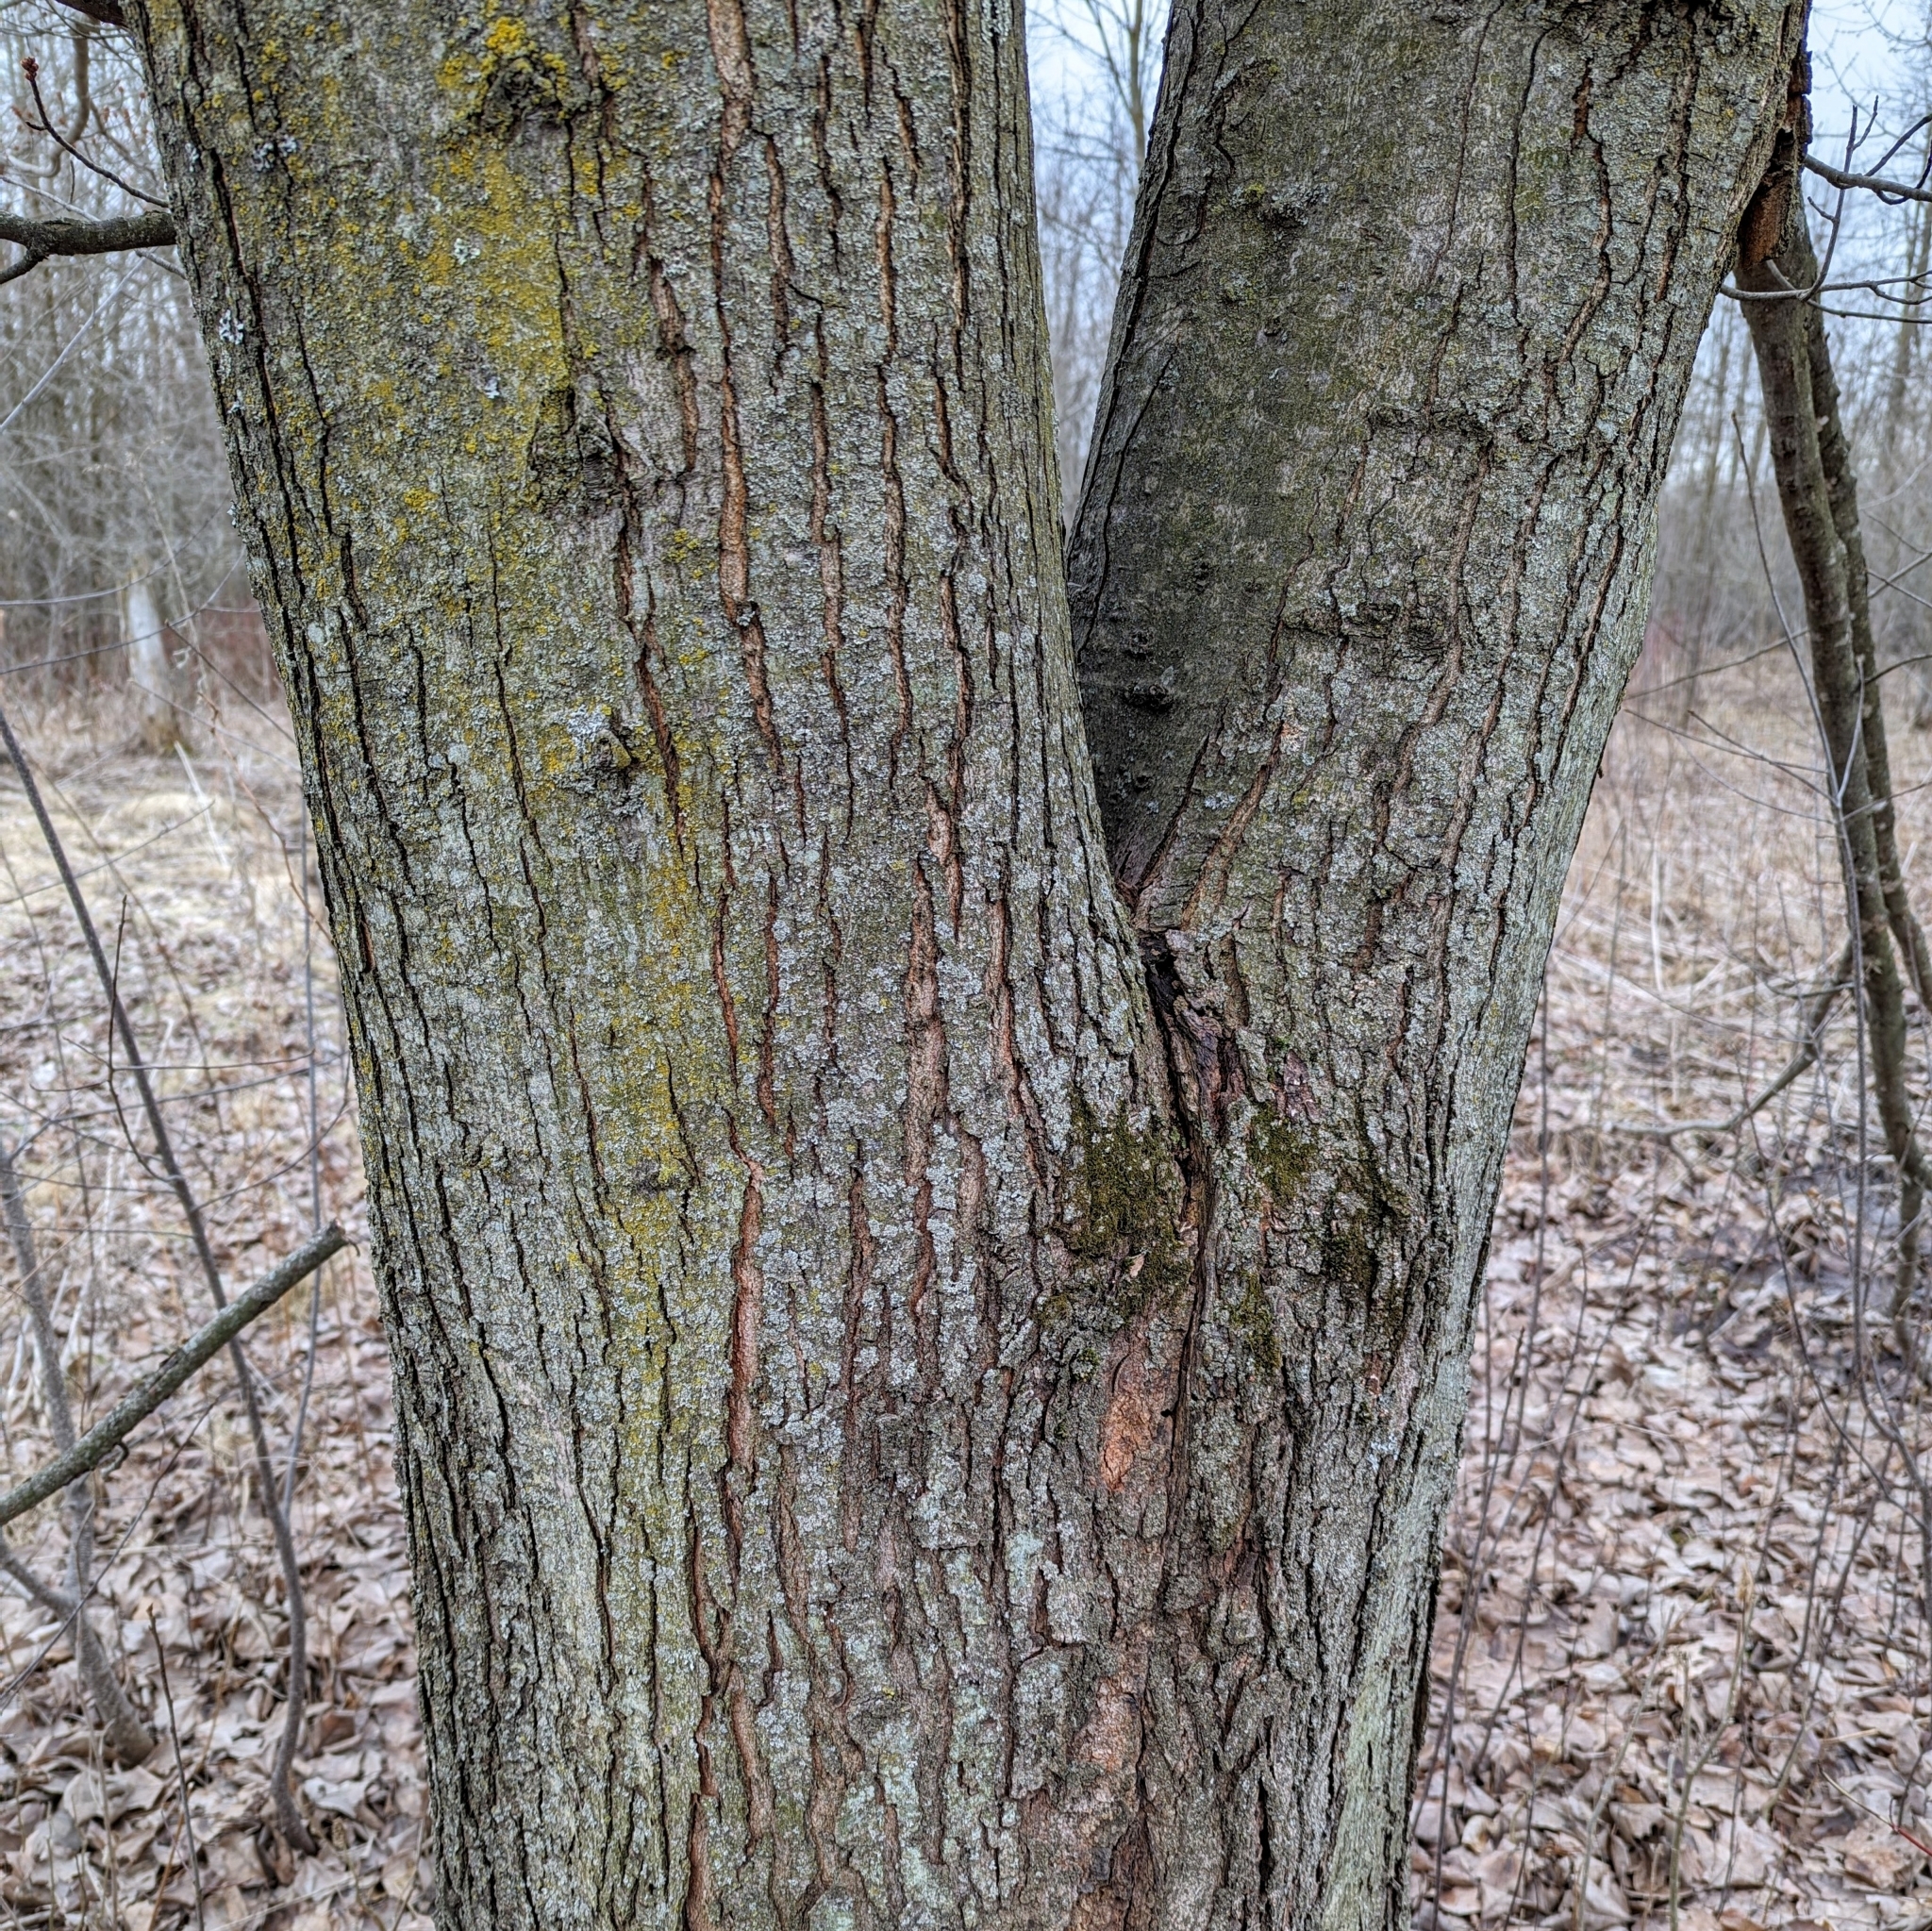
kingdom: Plantae
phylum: Tracheophyta
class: Magnoliopsida
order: Sapindales
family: Sapindaceae
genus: Acer
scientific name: Acer rubrum
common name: Red maple
